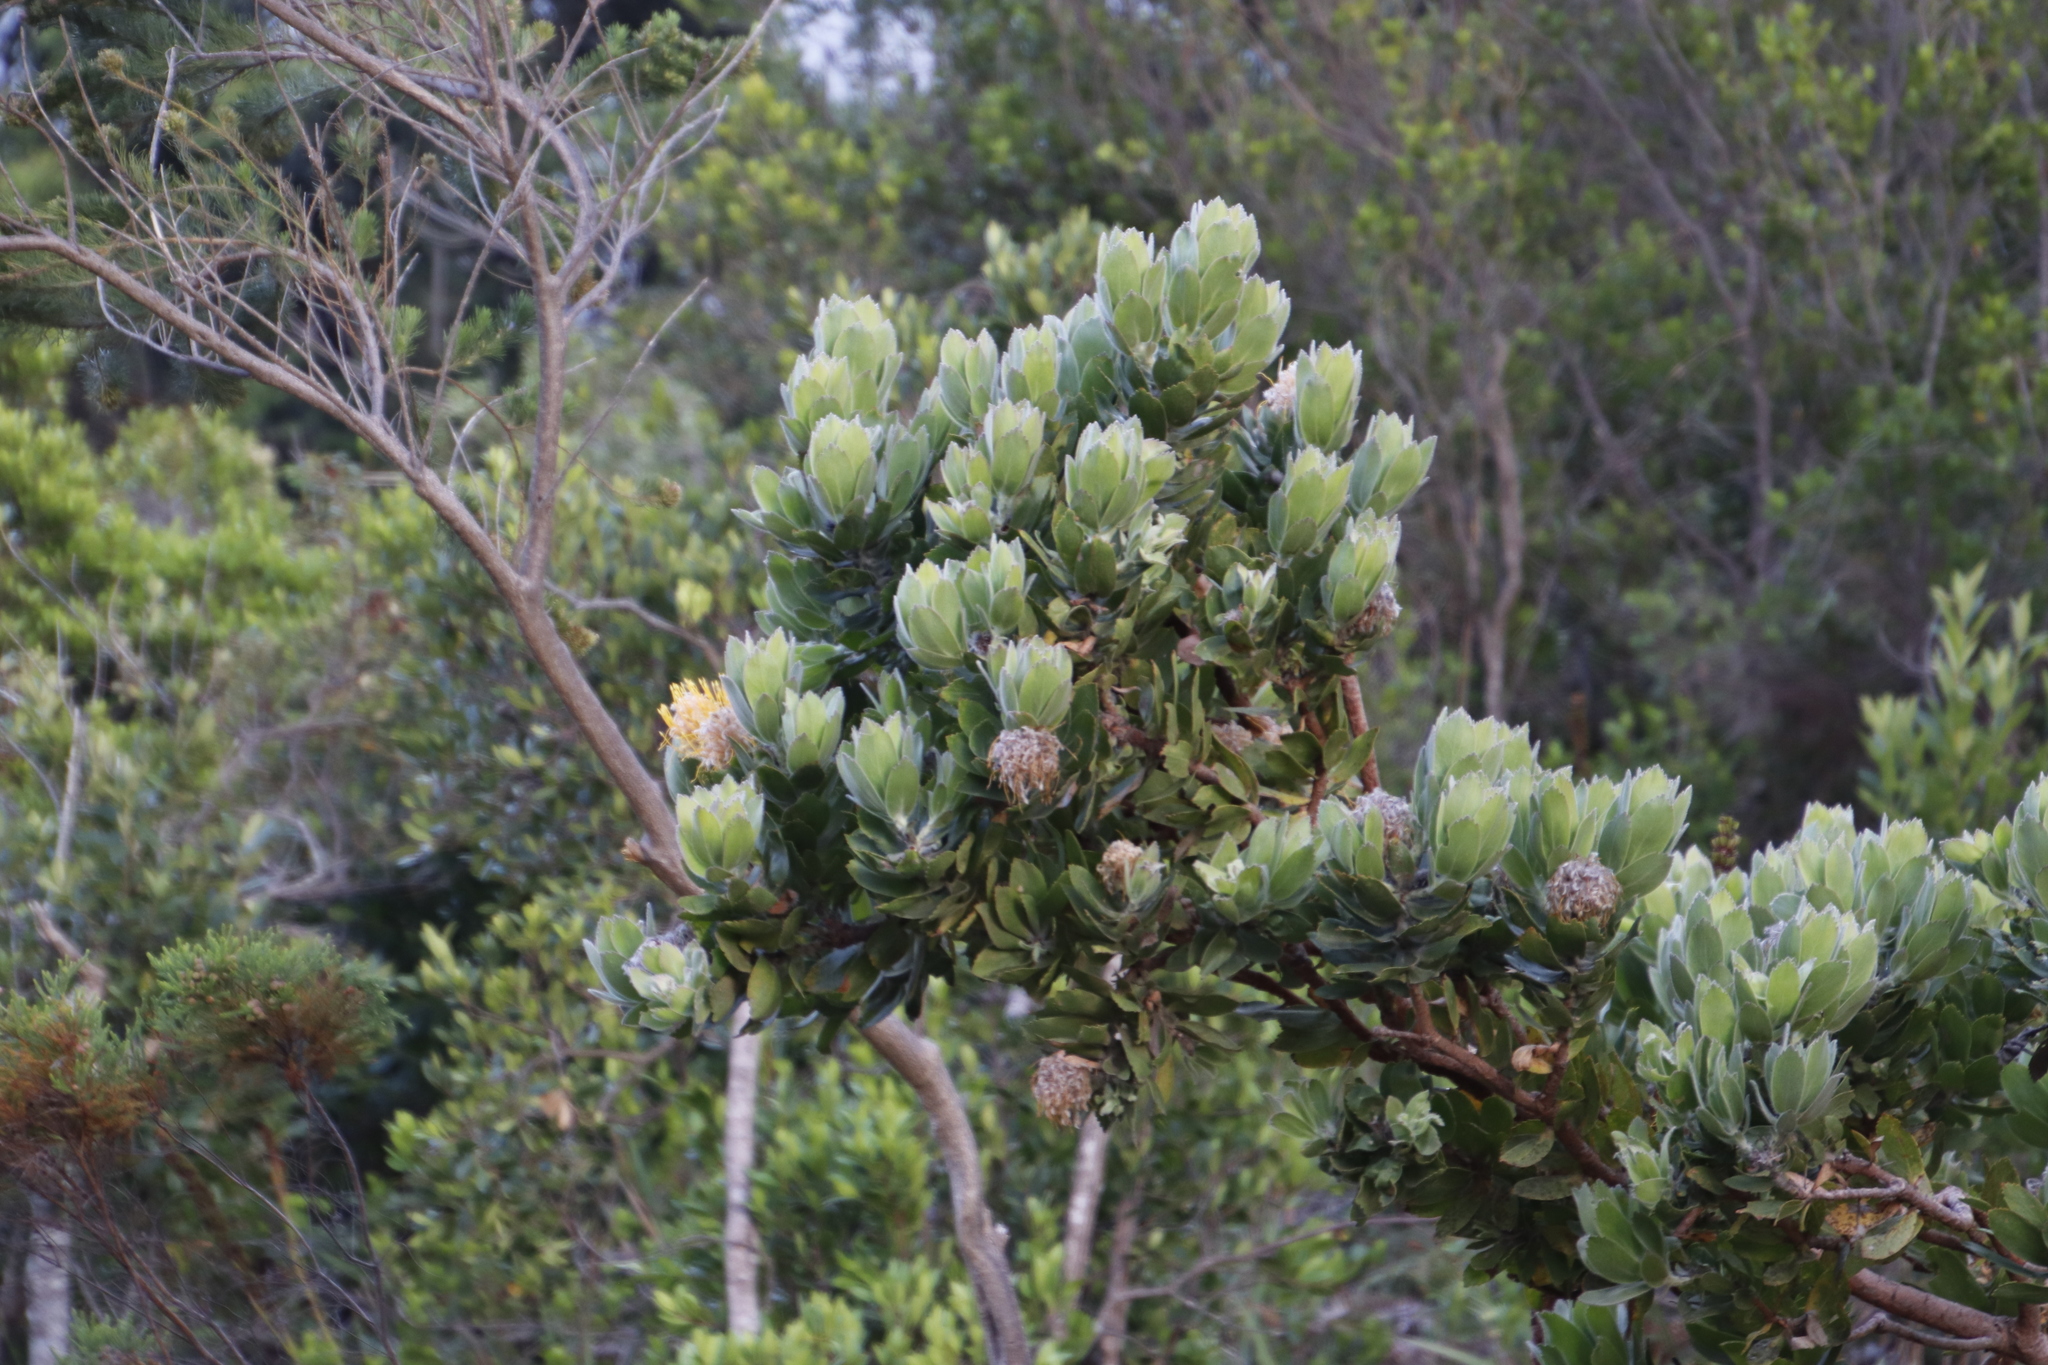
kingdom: Plantae
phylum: Tracheophyta
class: Magnoliopsida
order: Proteales
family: Proteaceae
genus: Leucospermum
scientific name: Leucospermum conocarpodendron
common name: Tree pincushion
